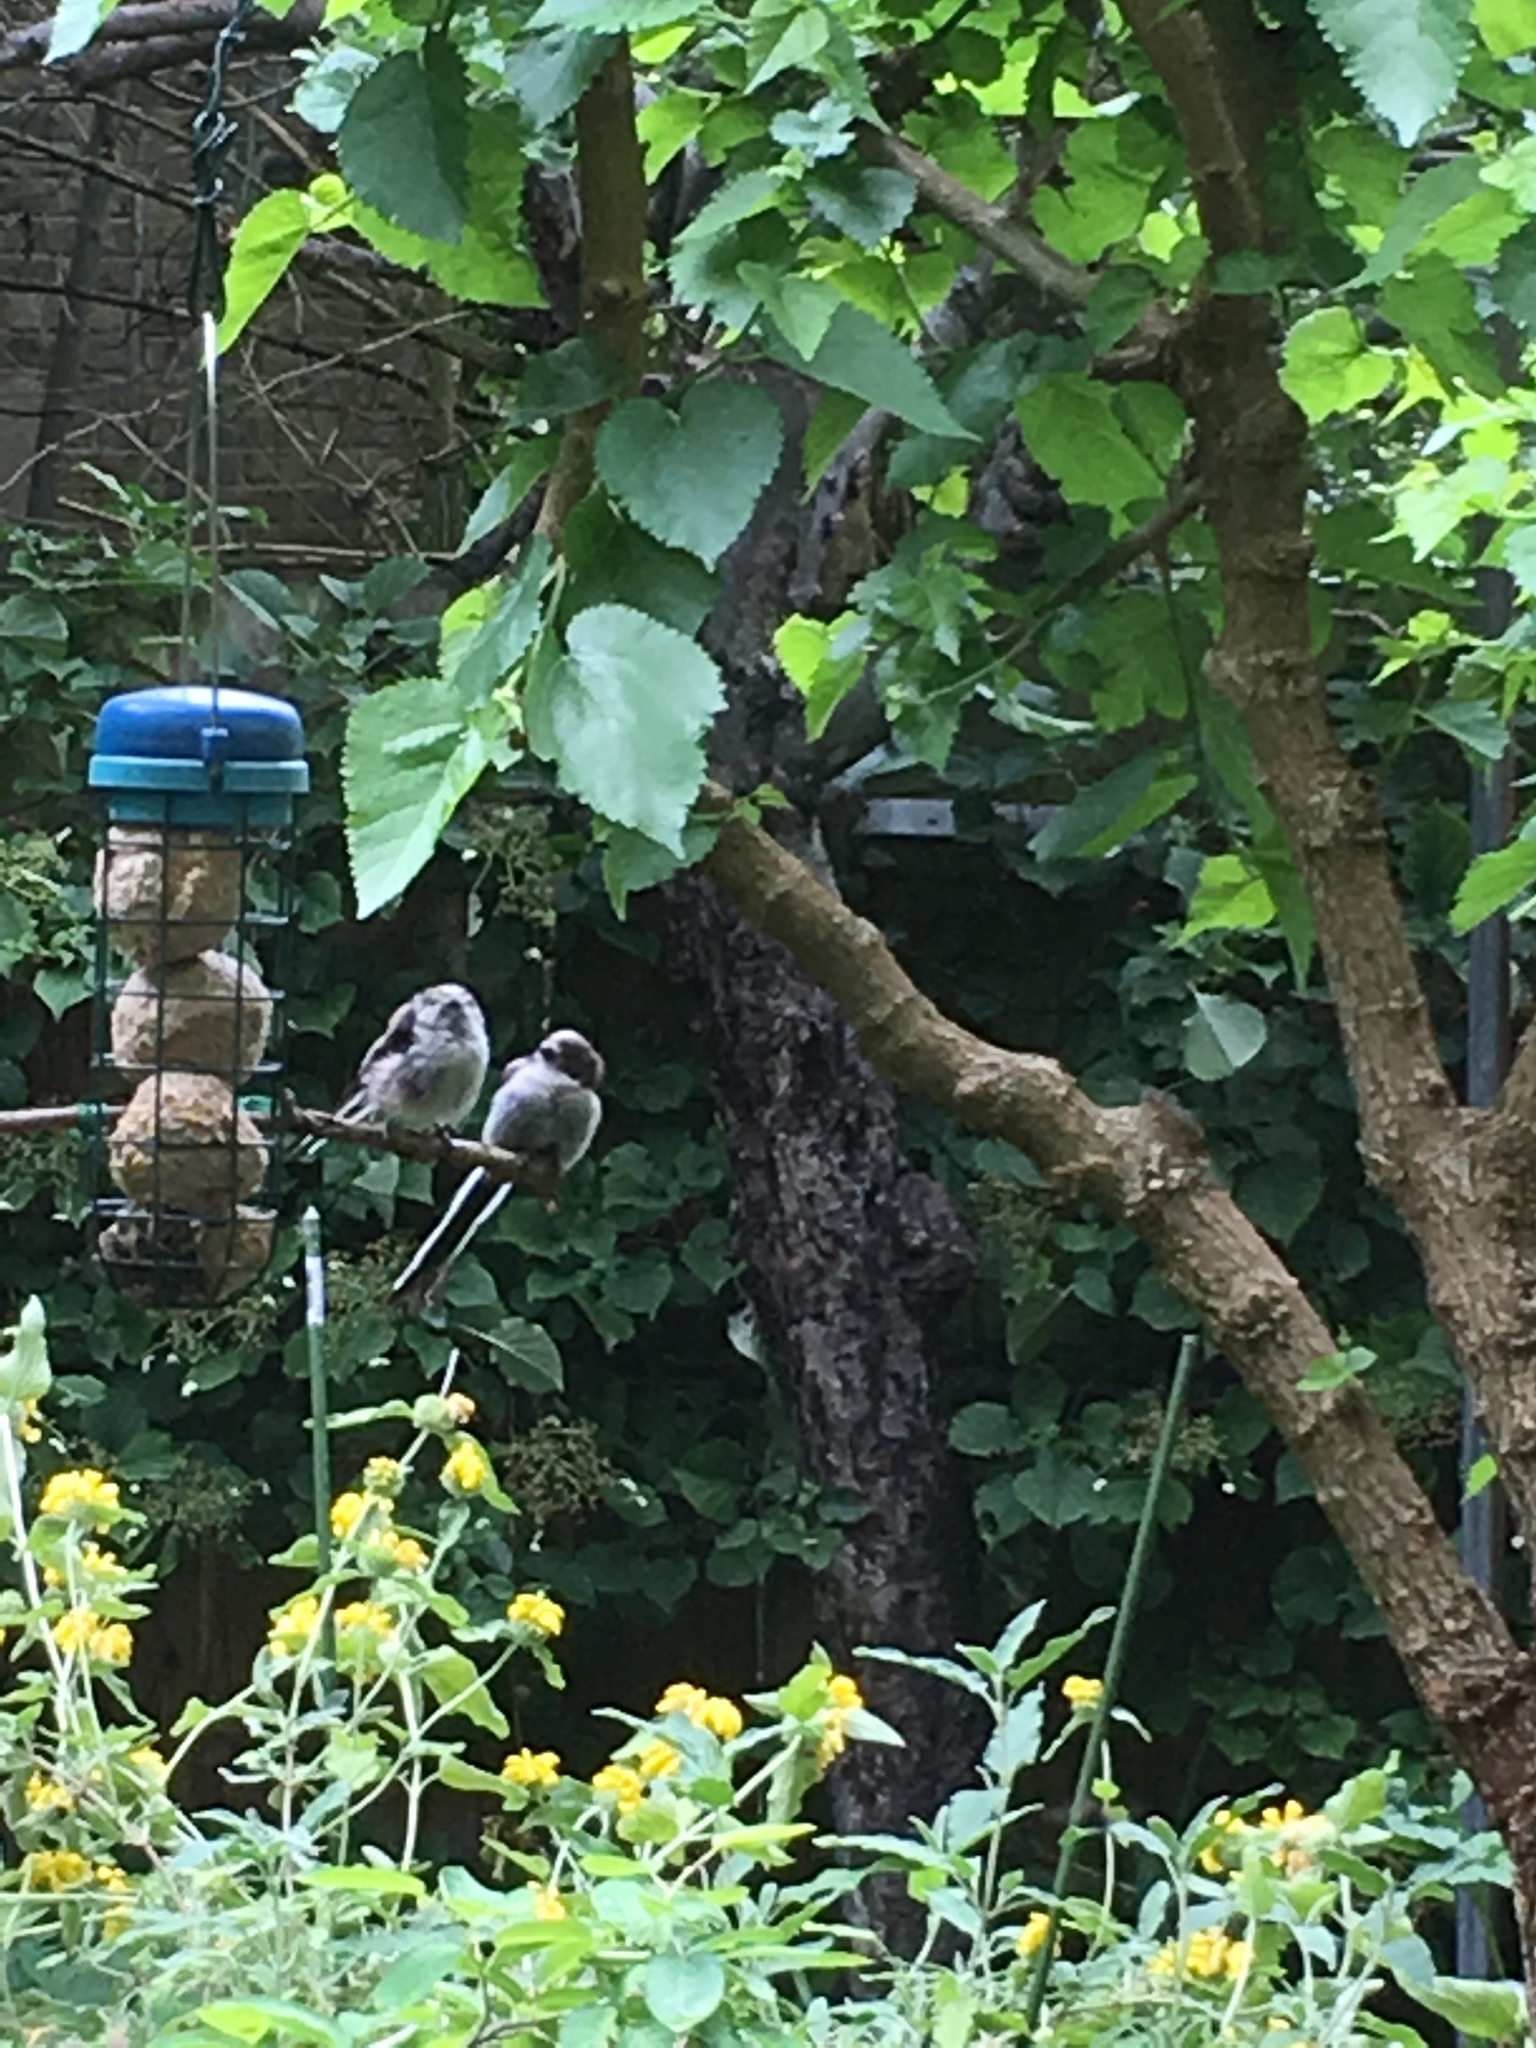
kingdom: Animalia
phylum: Chordata
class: Aves
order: Passeriformes
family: Aegithalidae
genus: Aegithalos
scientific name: Aegithalos caudatus
